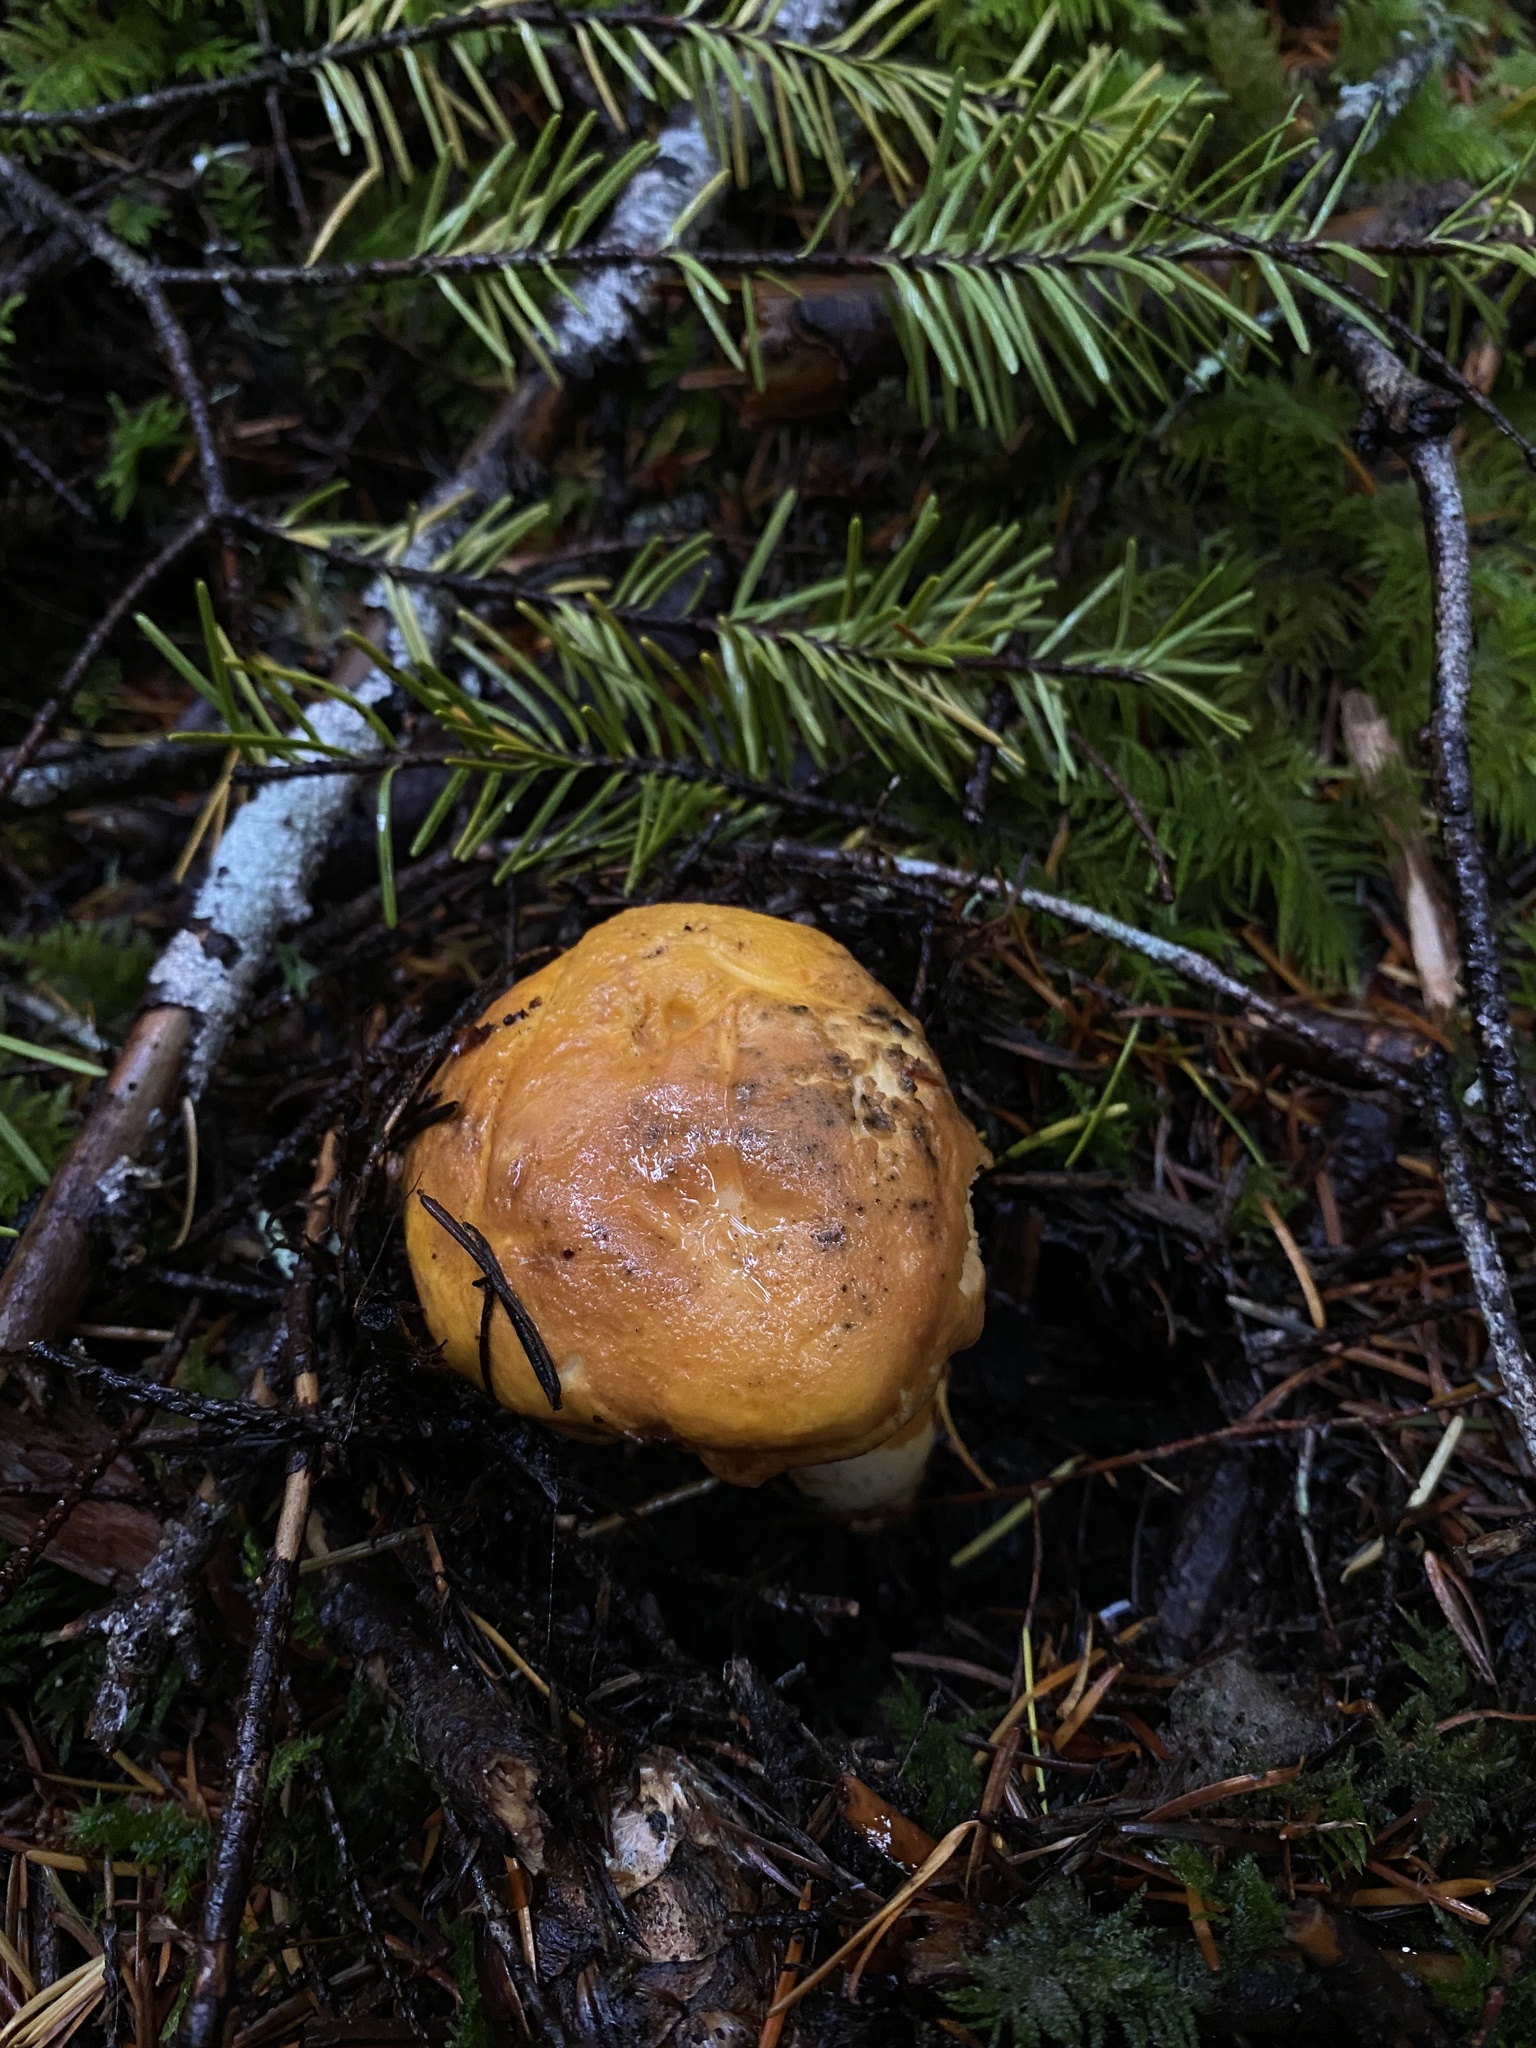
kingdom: Fungi
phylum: Basidiomycota
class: Agaricomycetes
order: Cantharellales
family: Hydnaceae
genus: Cantharellus
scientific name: Cantharellus formosus
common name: Pacific golden chanterelle
